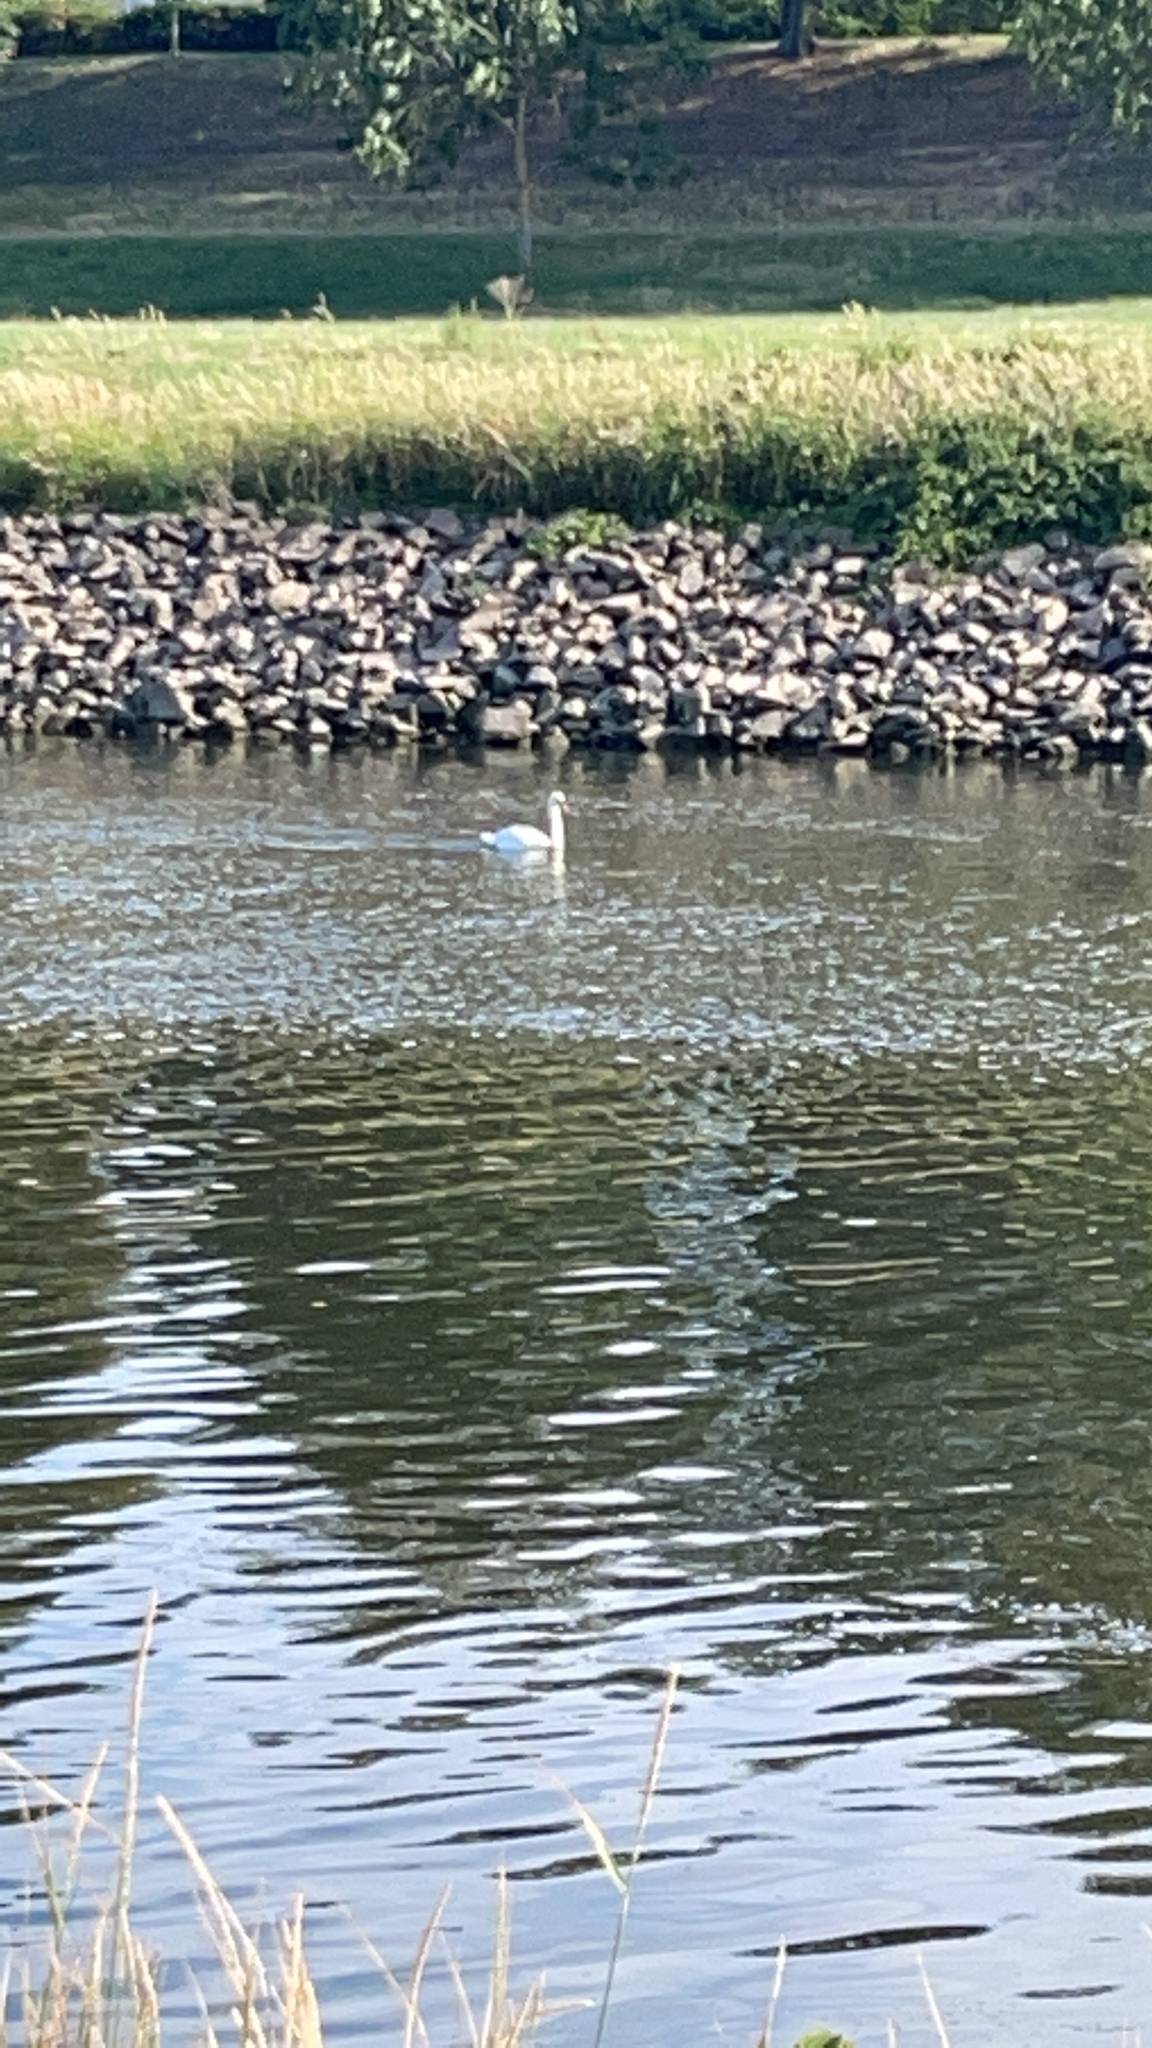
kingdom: Animalia
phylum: Chordata
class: Aves
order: Anseriformes
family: Anatidae
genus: Cygnus
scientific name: Cygnus olor
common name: Mute swan
